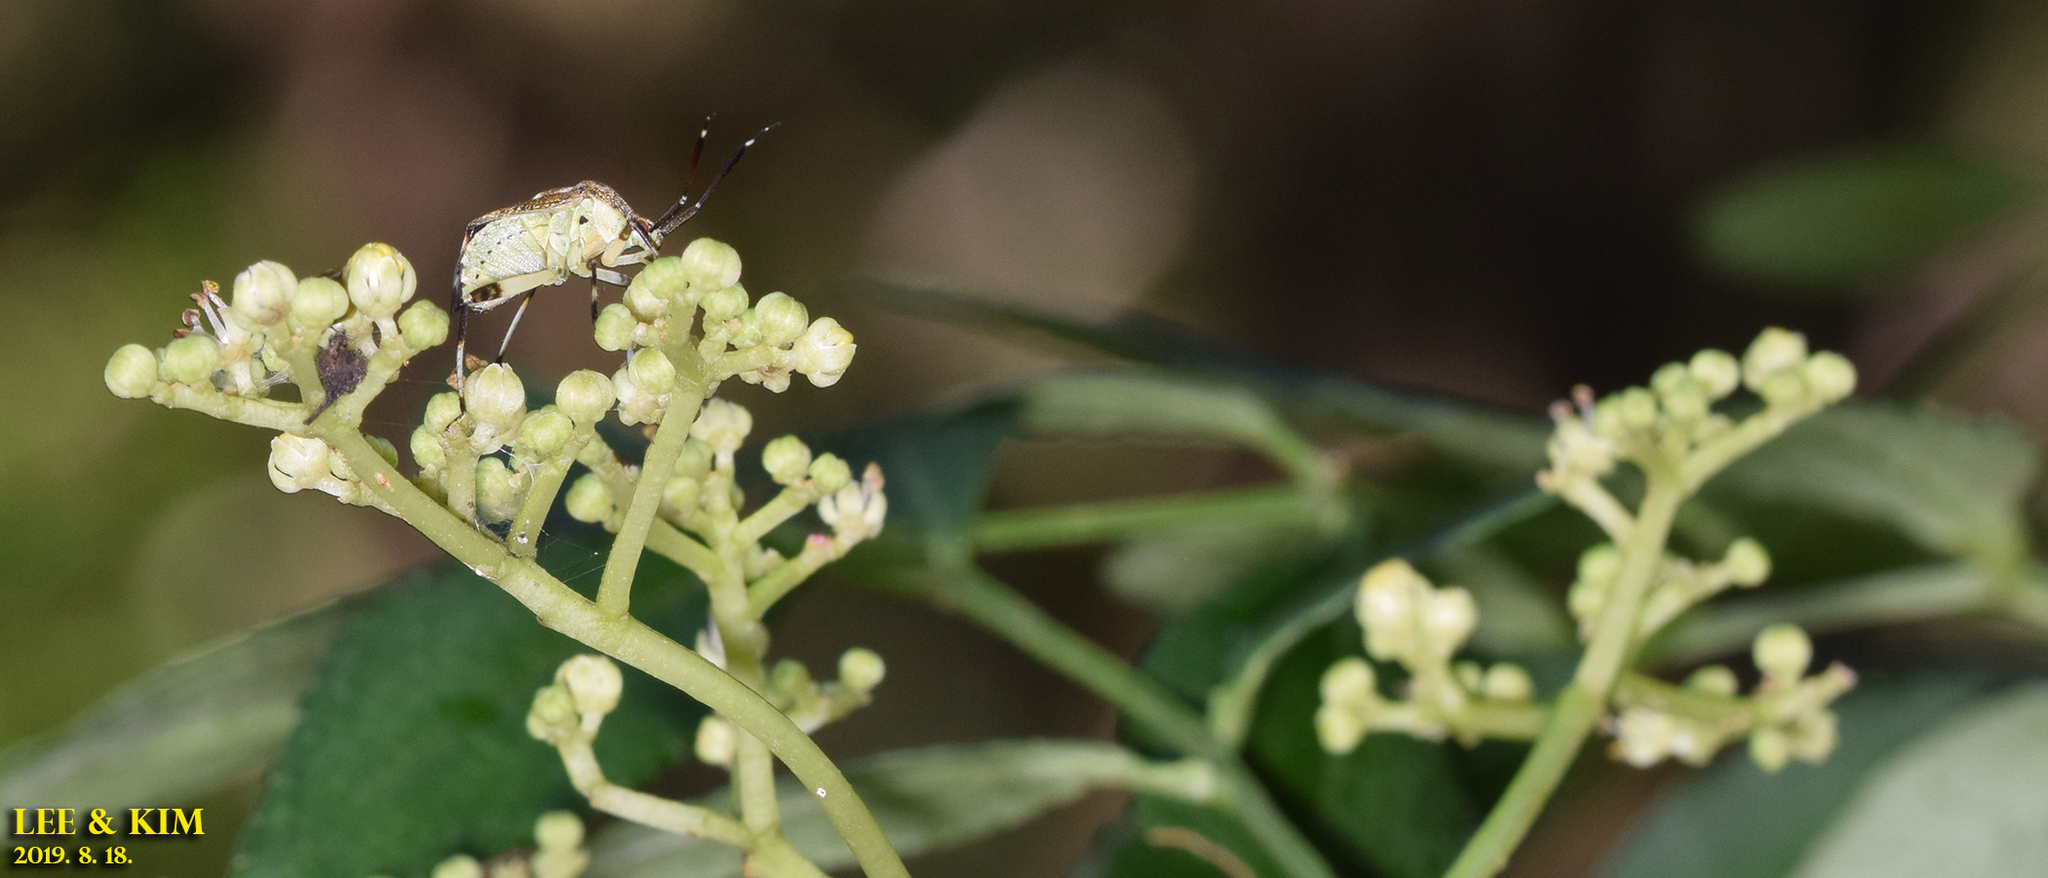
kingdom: Animalia
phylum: Arthropoda
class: Insecta
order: Hemiptera
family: Miridae
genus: Eurystylus
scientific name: Eurystylus coelestialium
